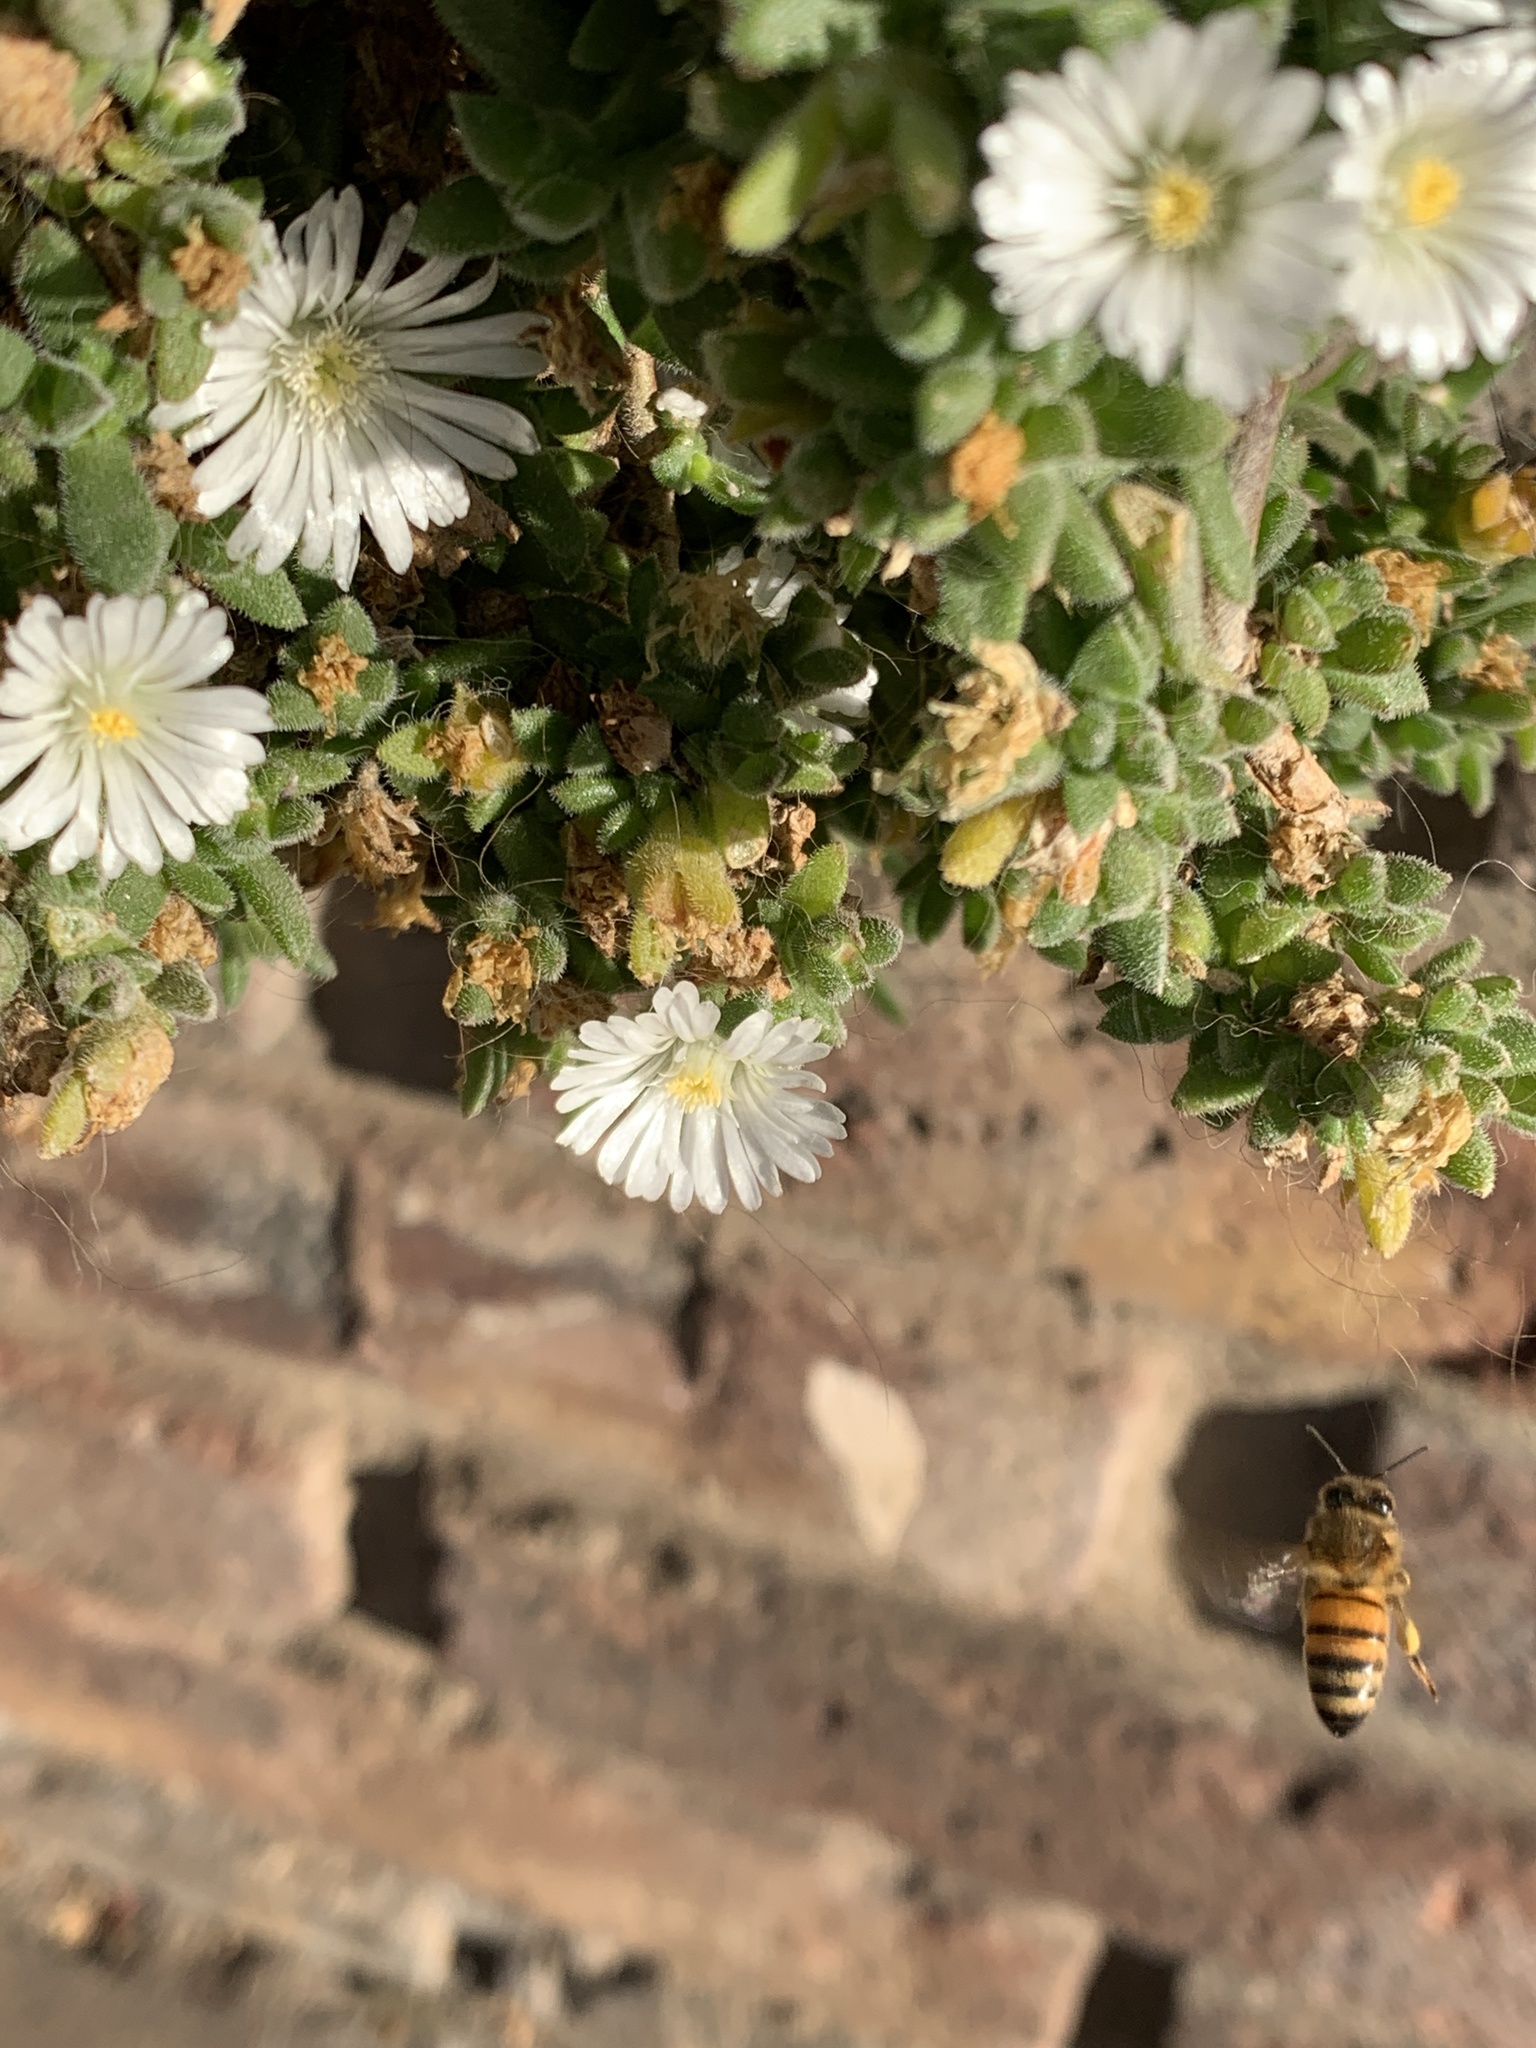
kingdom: Animalia
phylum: Arthropoda
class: Insecta
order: Hymenoptera
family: Apidae
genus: Apis
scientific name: Apis mellifera
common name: Honey bee
